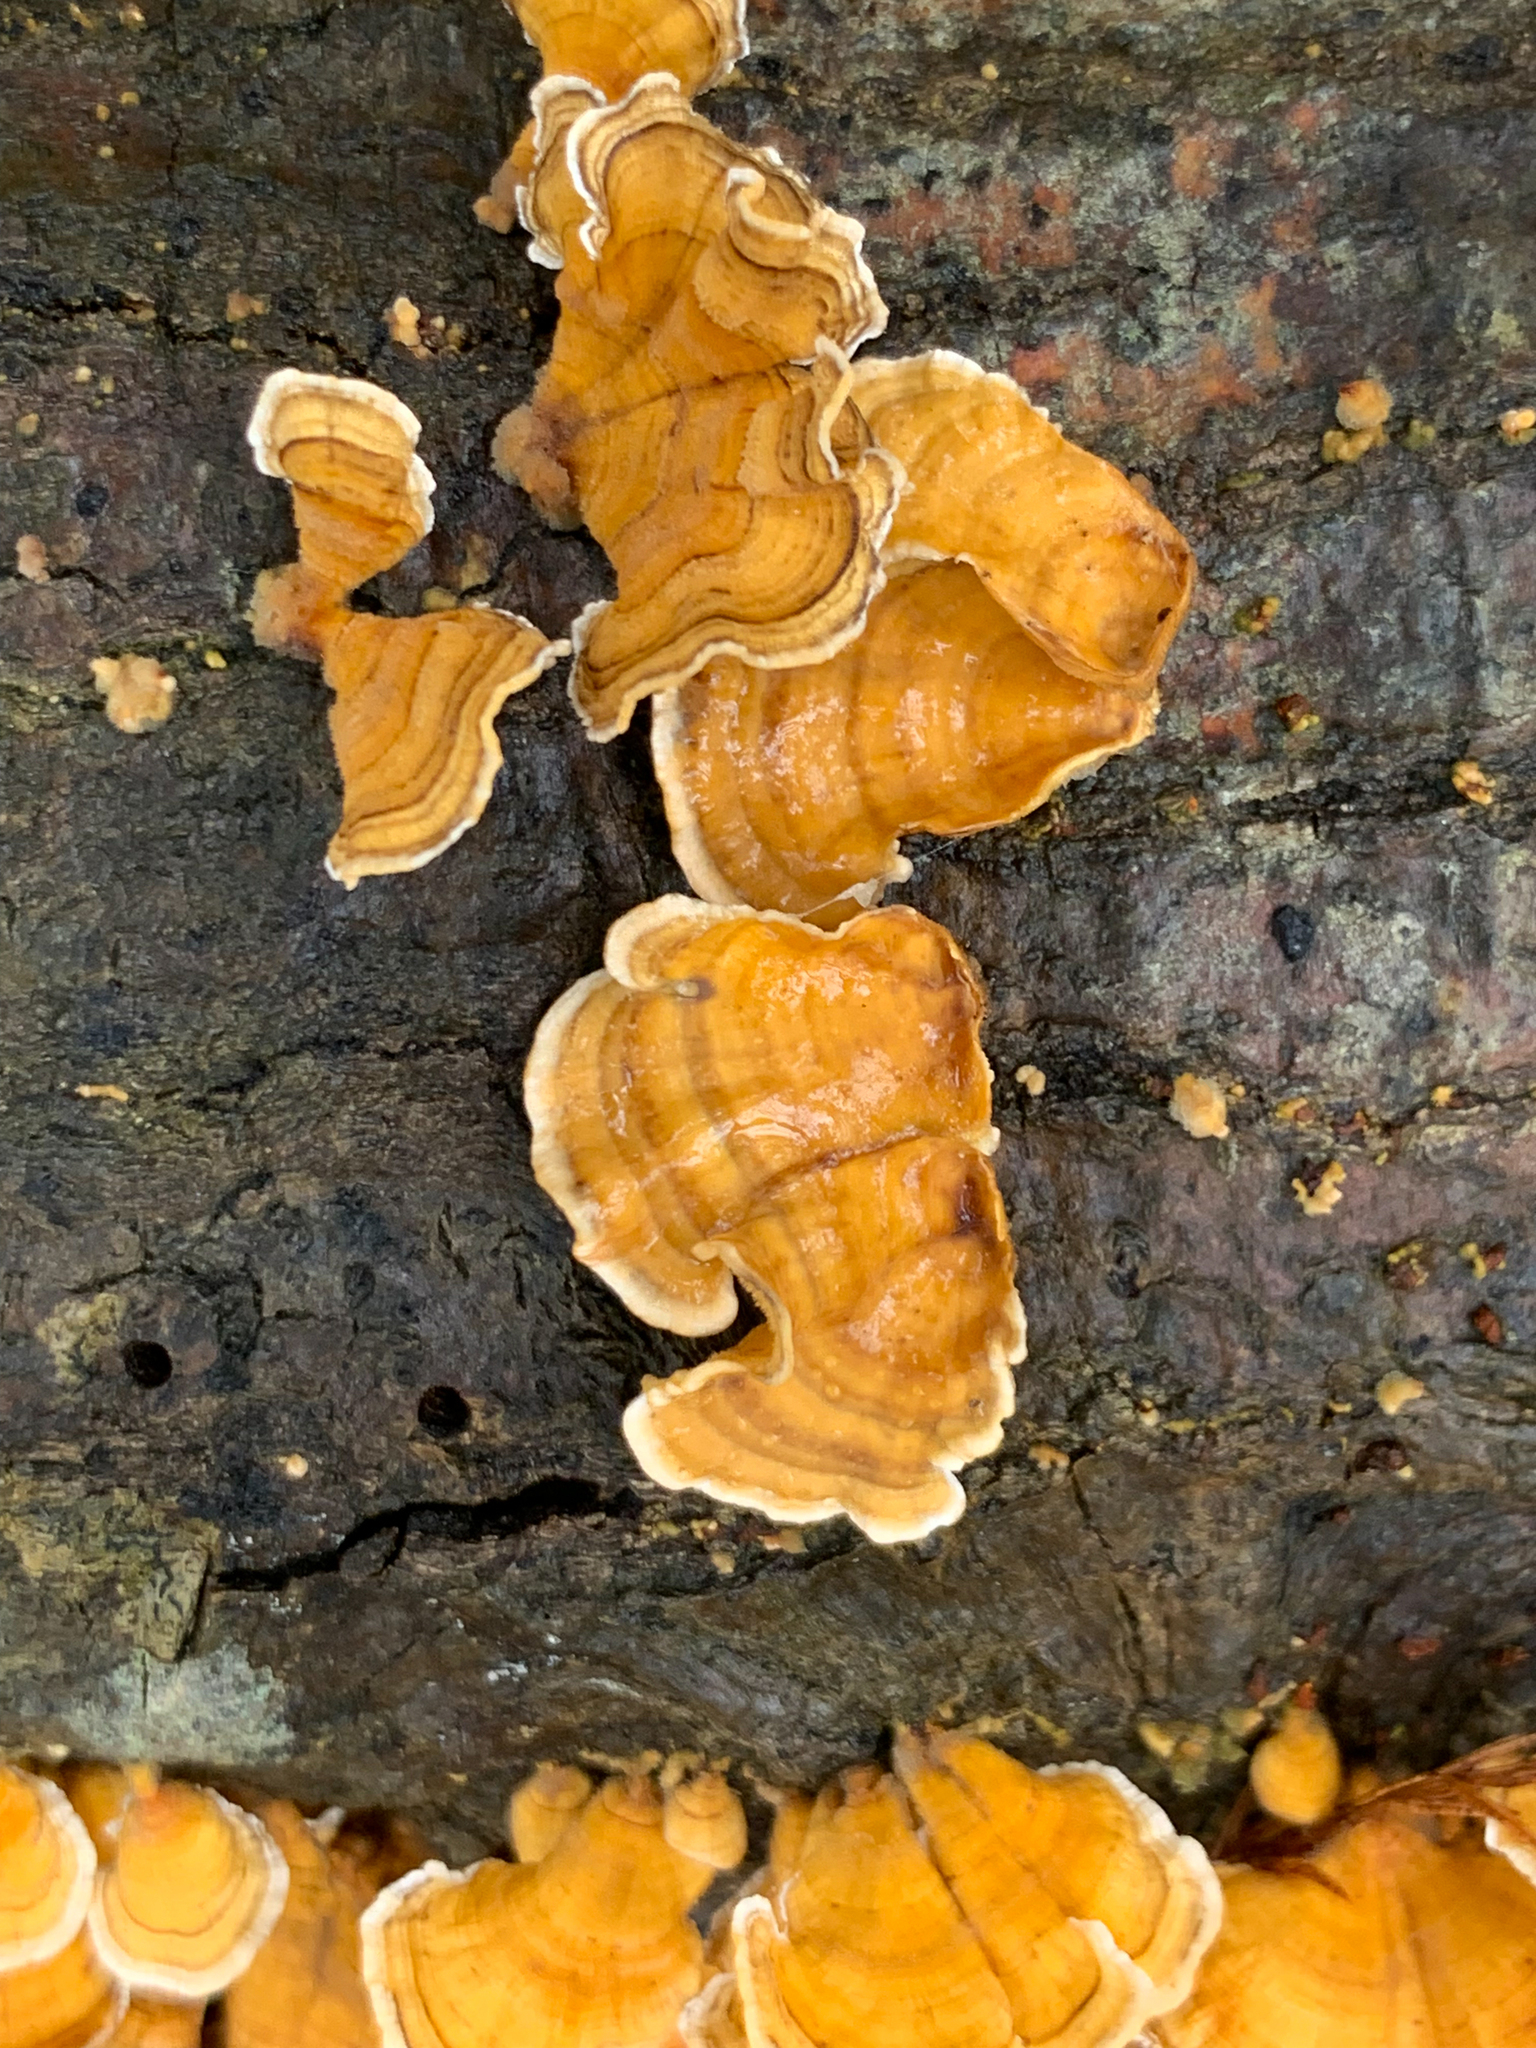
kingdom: Fungi
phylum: Basidiomycota
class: Agaricomycetes
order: Russulales
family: Stereaceae
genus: Stereum
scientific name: Stereum complicatum
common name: Crowded parchment
